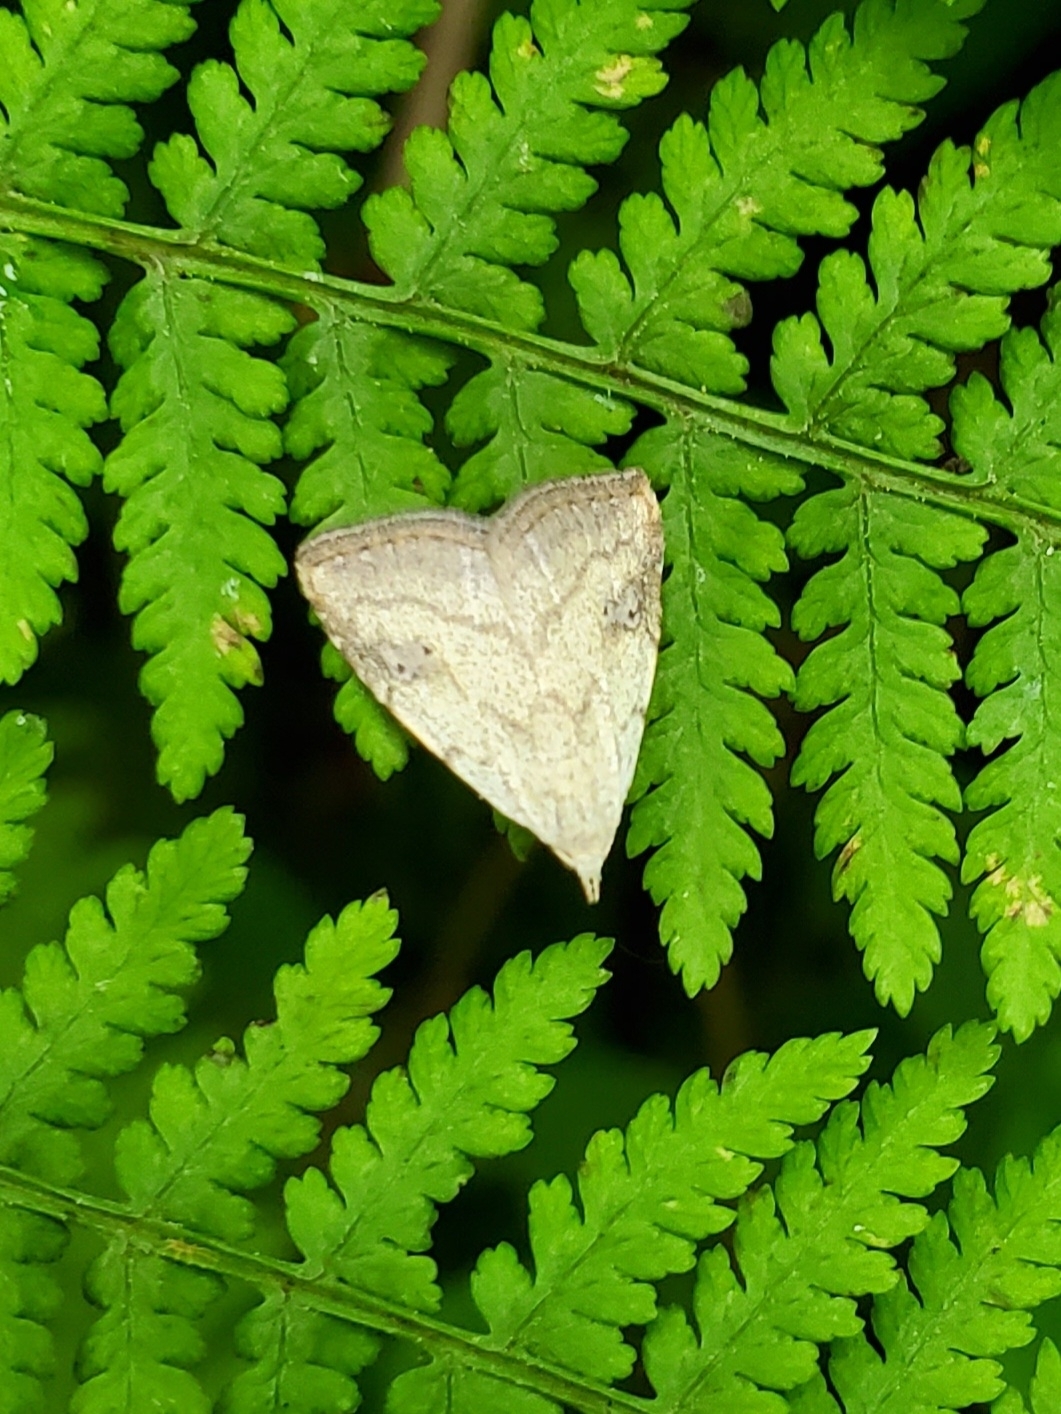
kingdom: Animalia
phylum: Arthropoda
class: Insecta
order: Lepidoptera
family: Erebidae
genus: Rivula
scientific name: Rivula propinqualis
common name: Spotted grass moth
